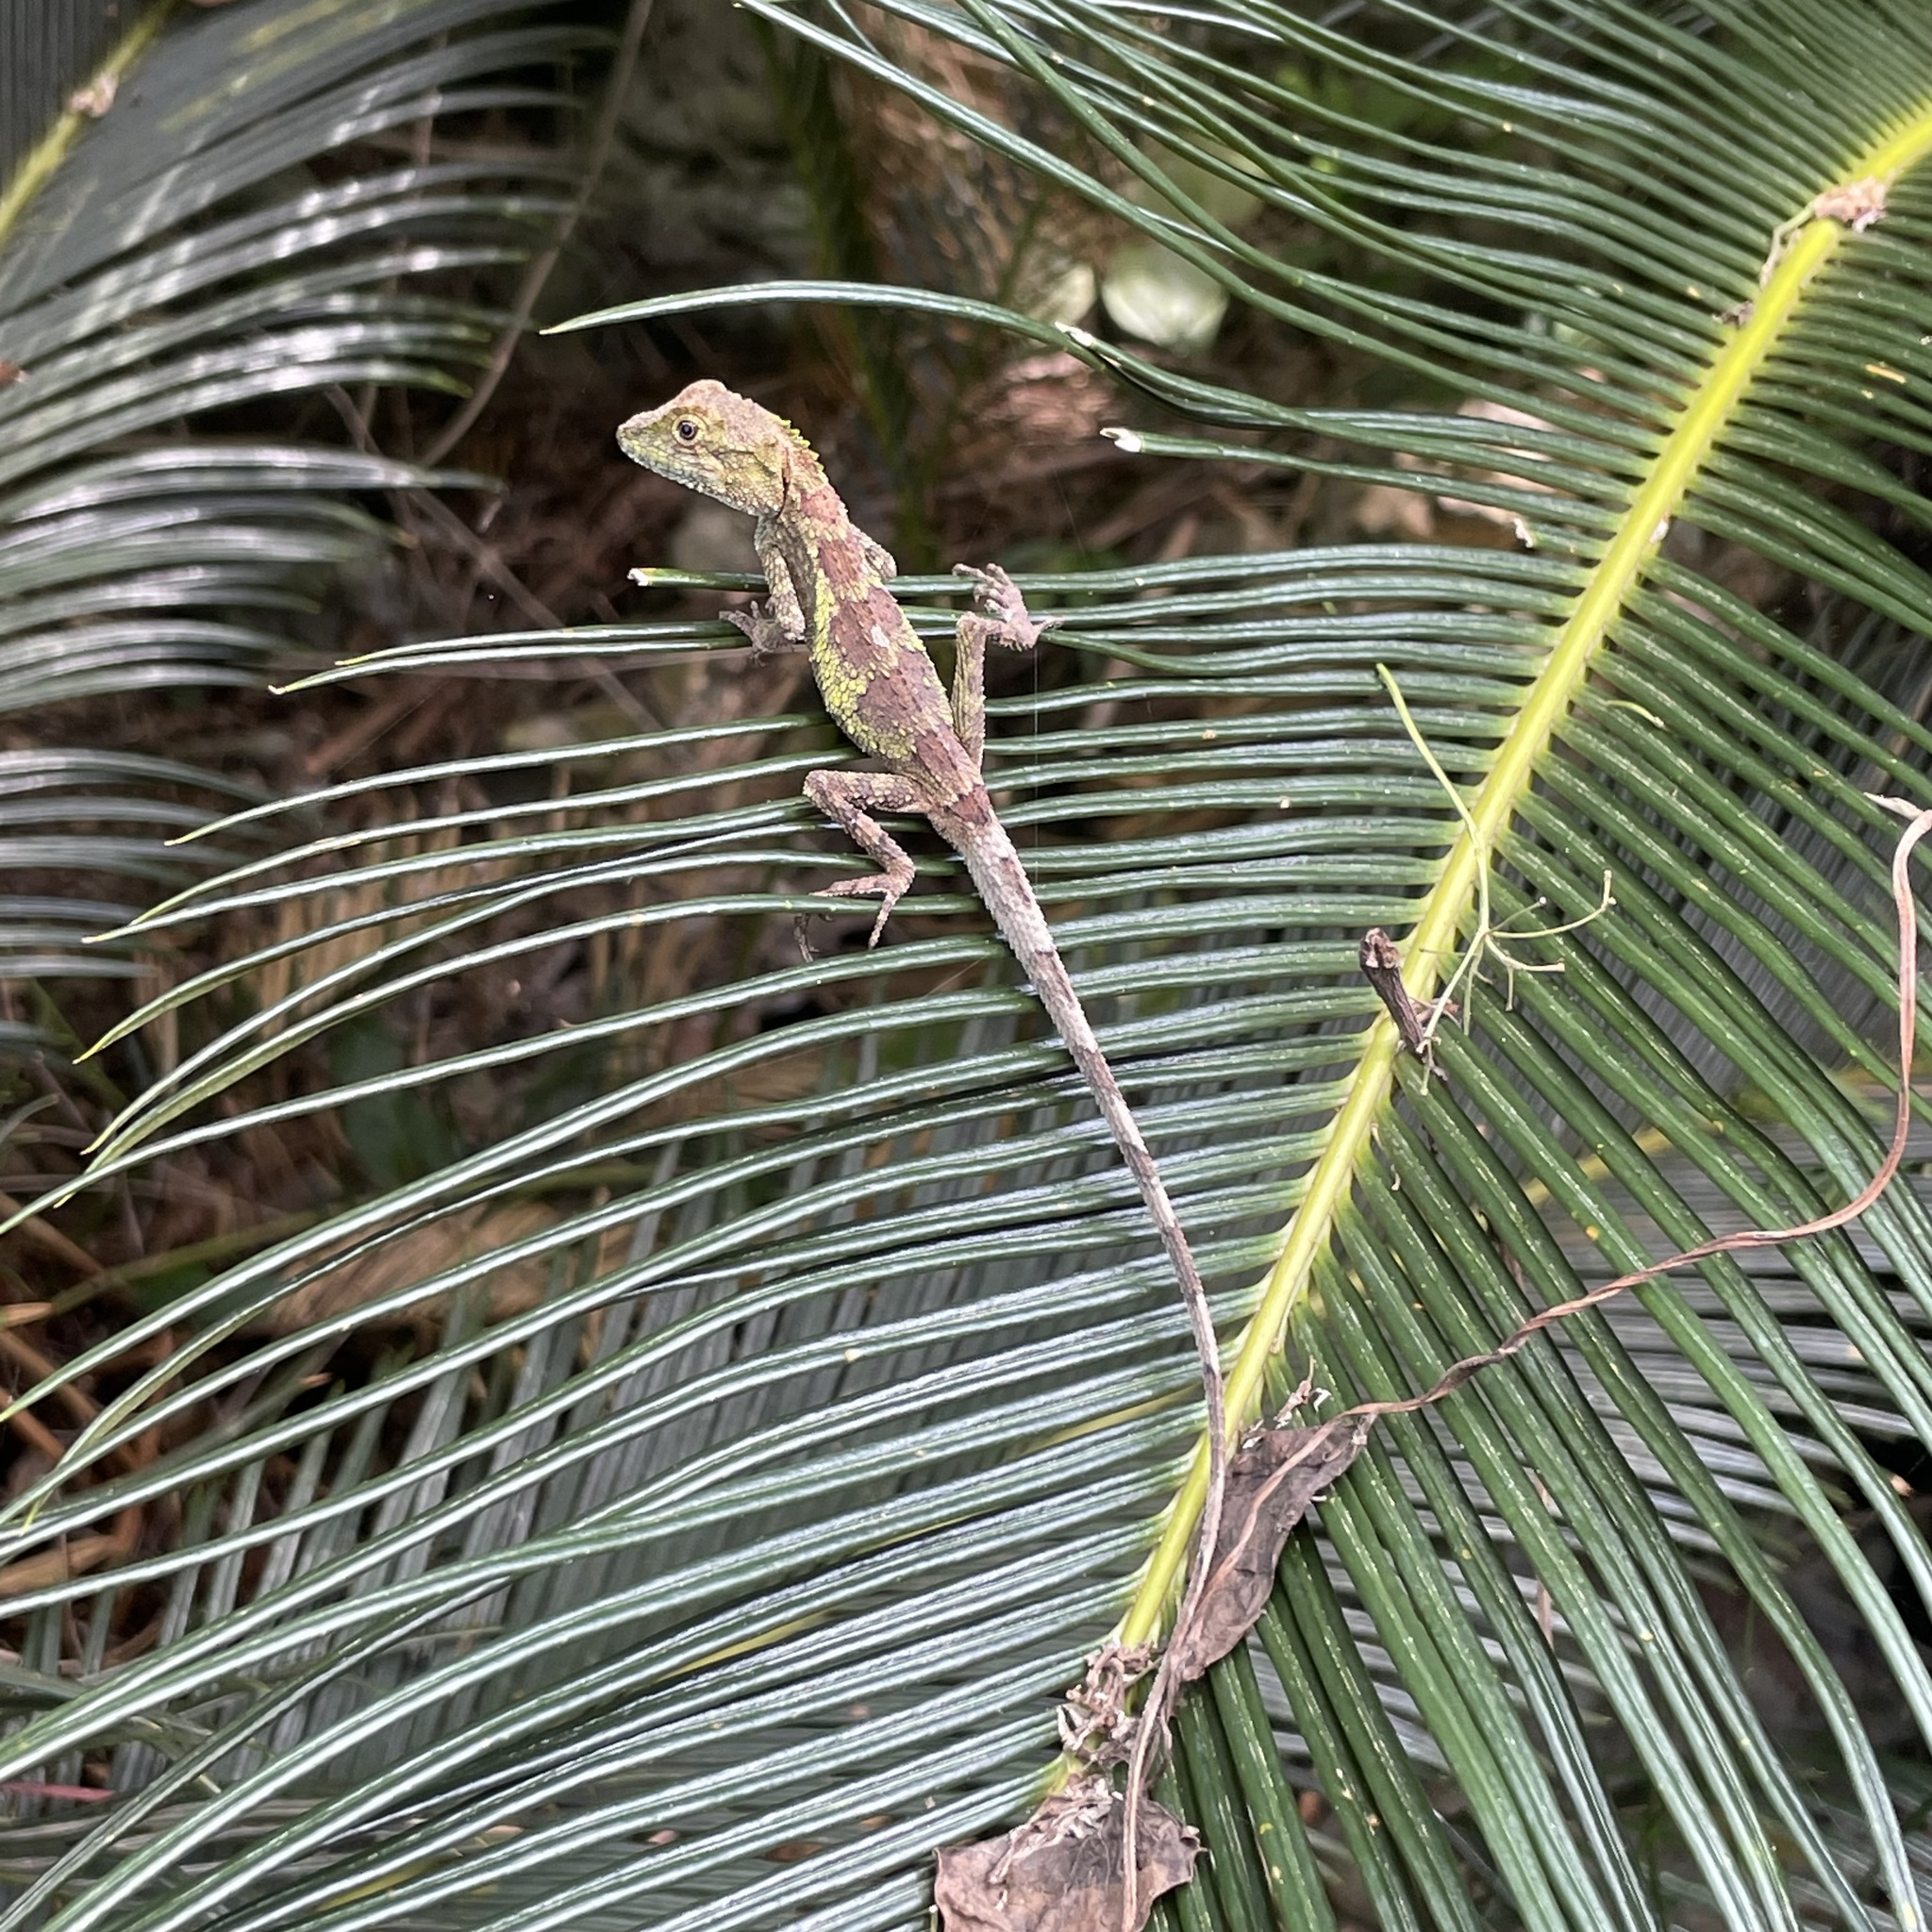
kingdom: Fungi
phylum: Basidiomycota
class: Agaricomycetes
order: Boletales
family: Diplocystidiaceae
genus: Diploderma
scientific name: Diploderma polygonatum
